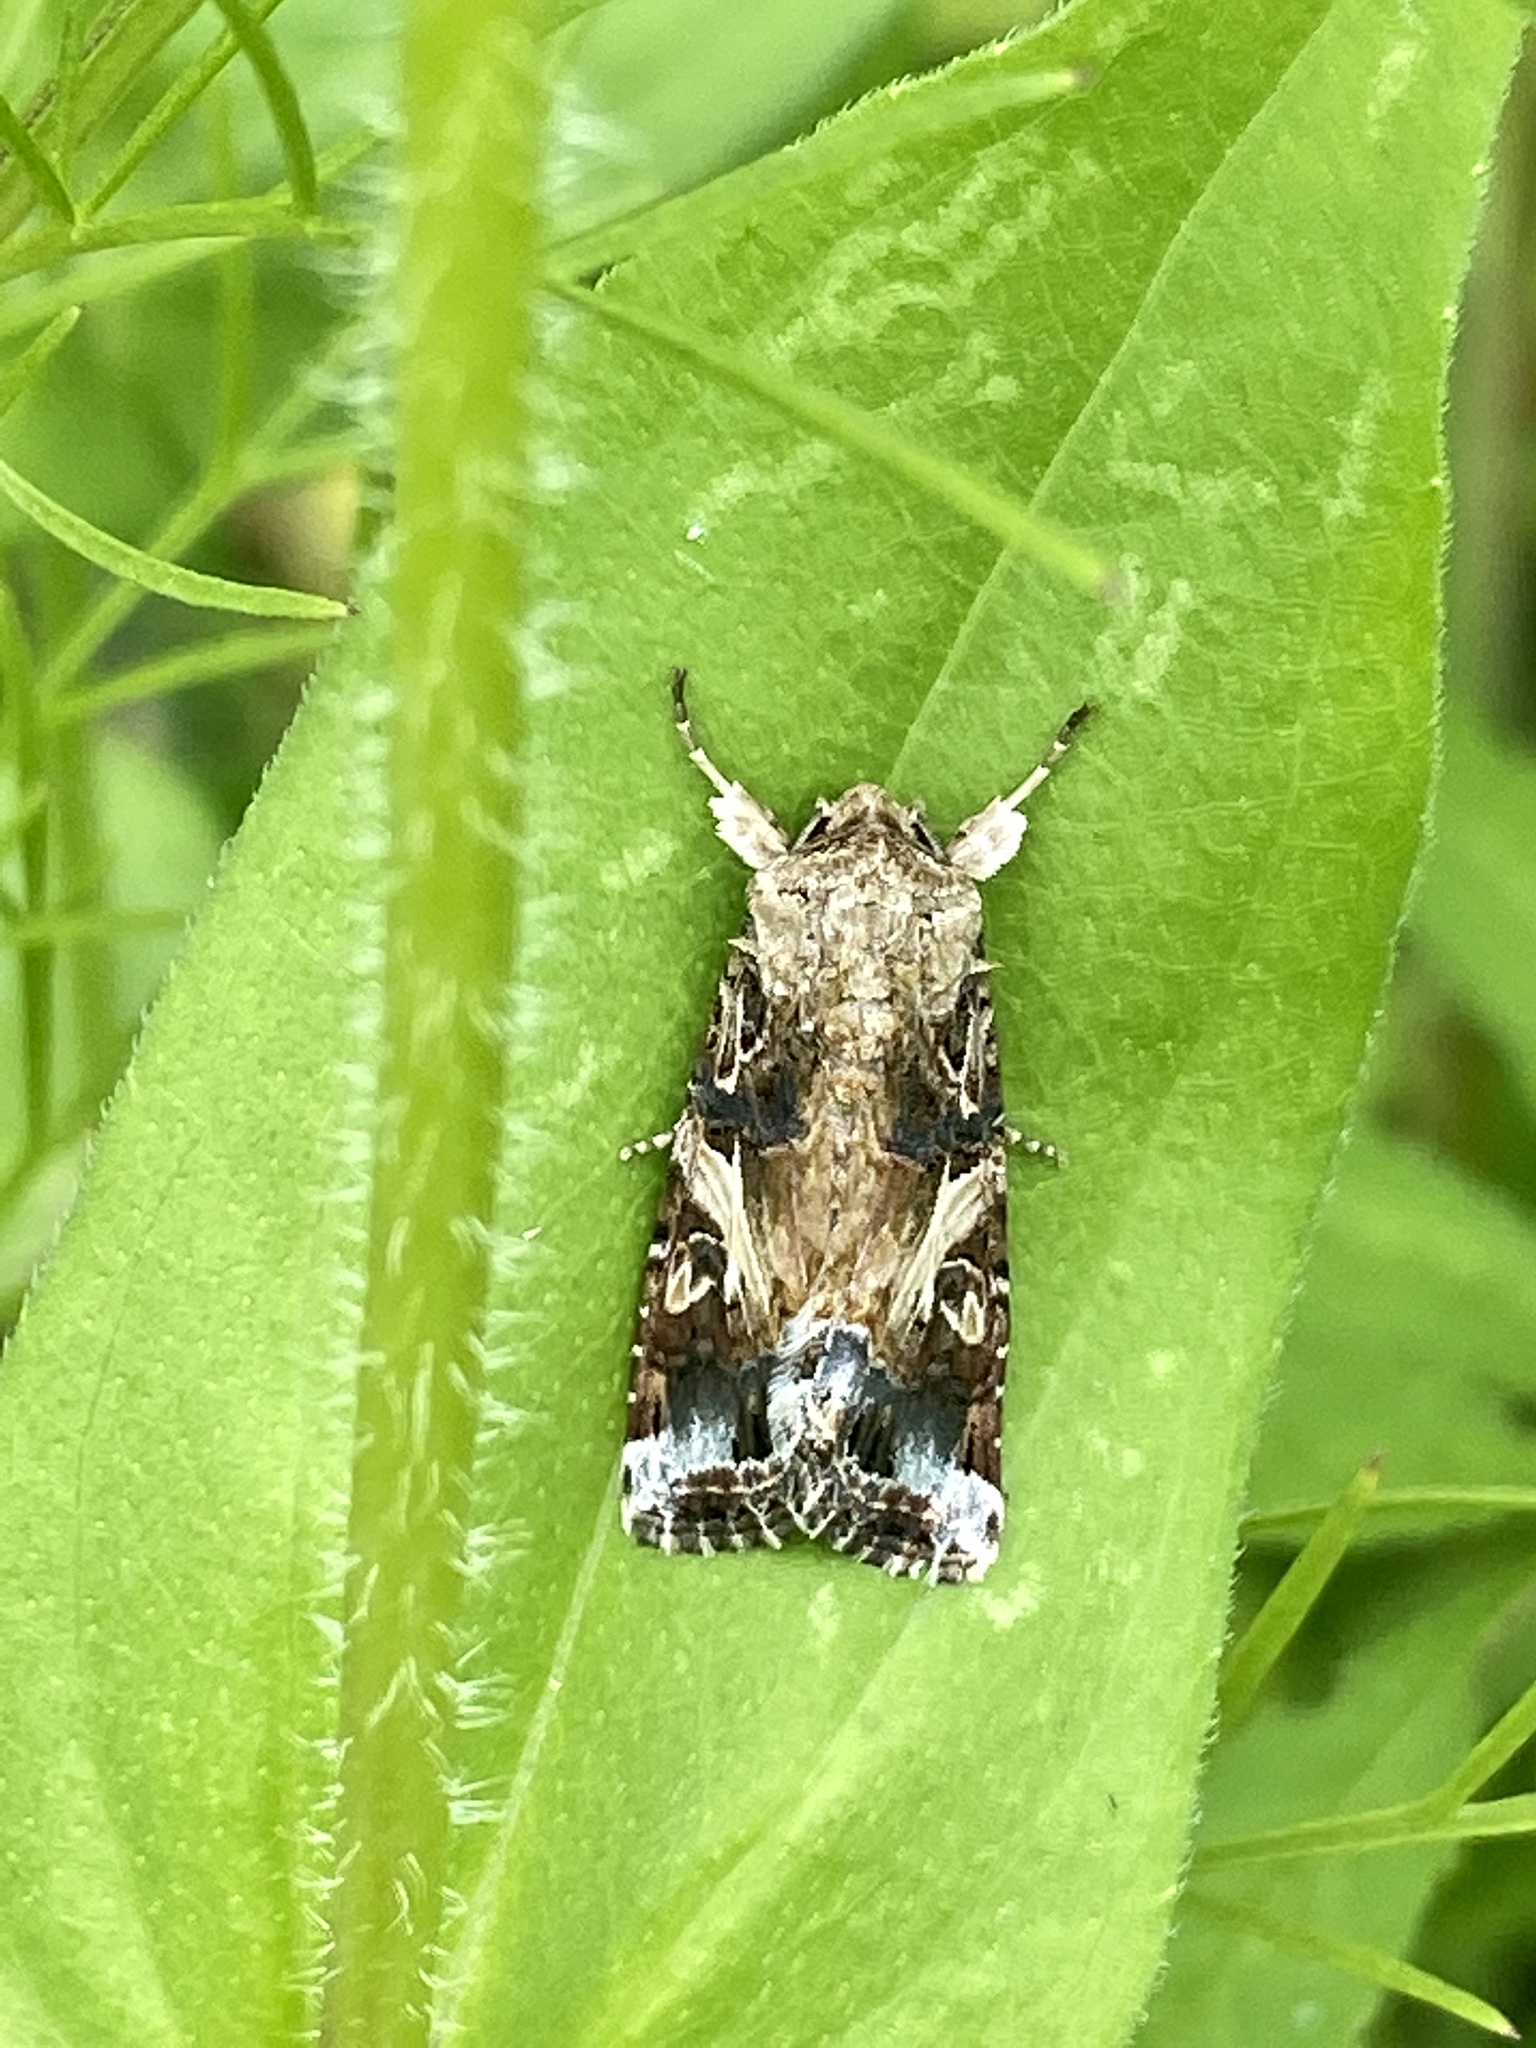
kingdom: Animalia
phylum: Arthropoda
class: Insecta
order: Lepidoptera
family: Noctuidae
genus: Spodoptera
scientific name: Spodoptera ornithogalli
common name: Yellow-striped armyworm
